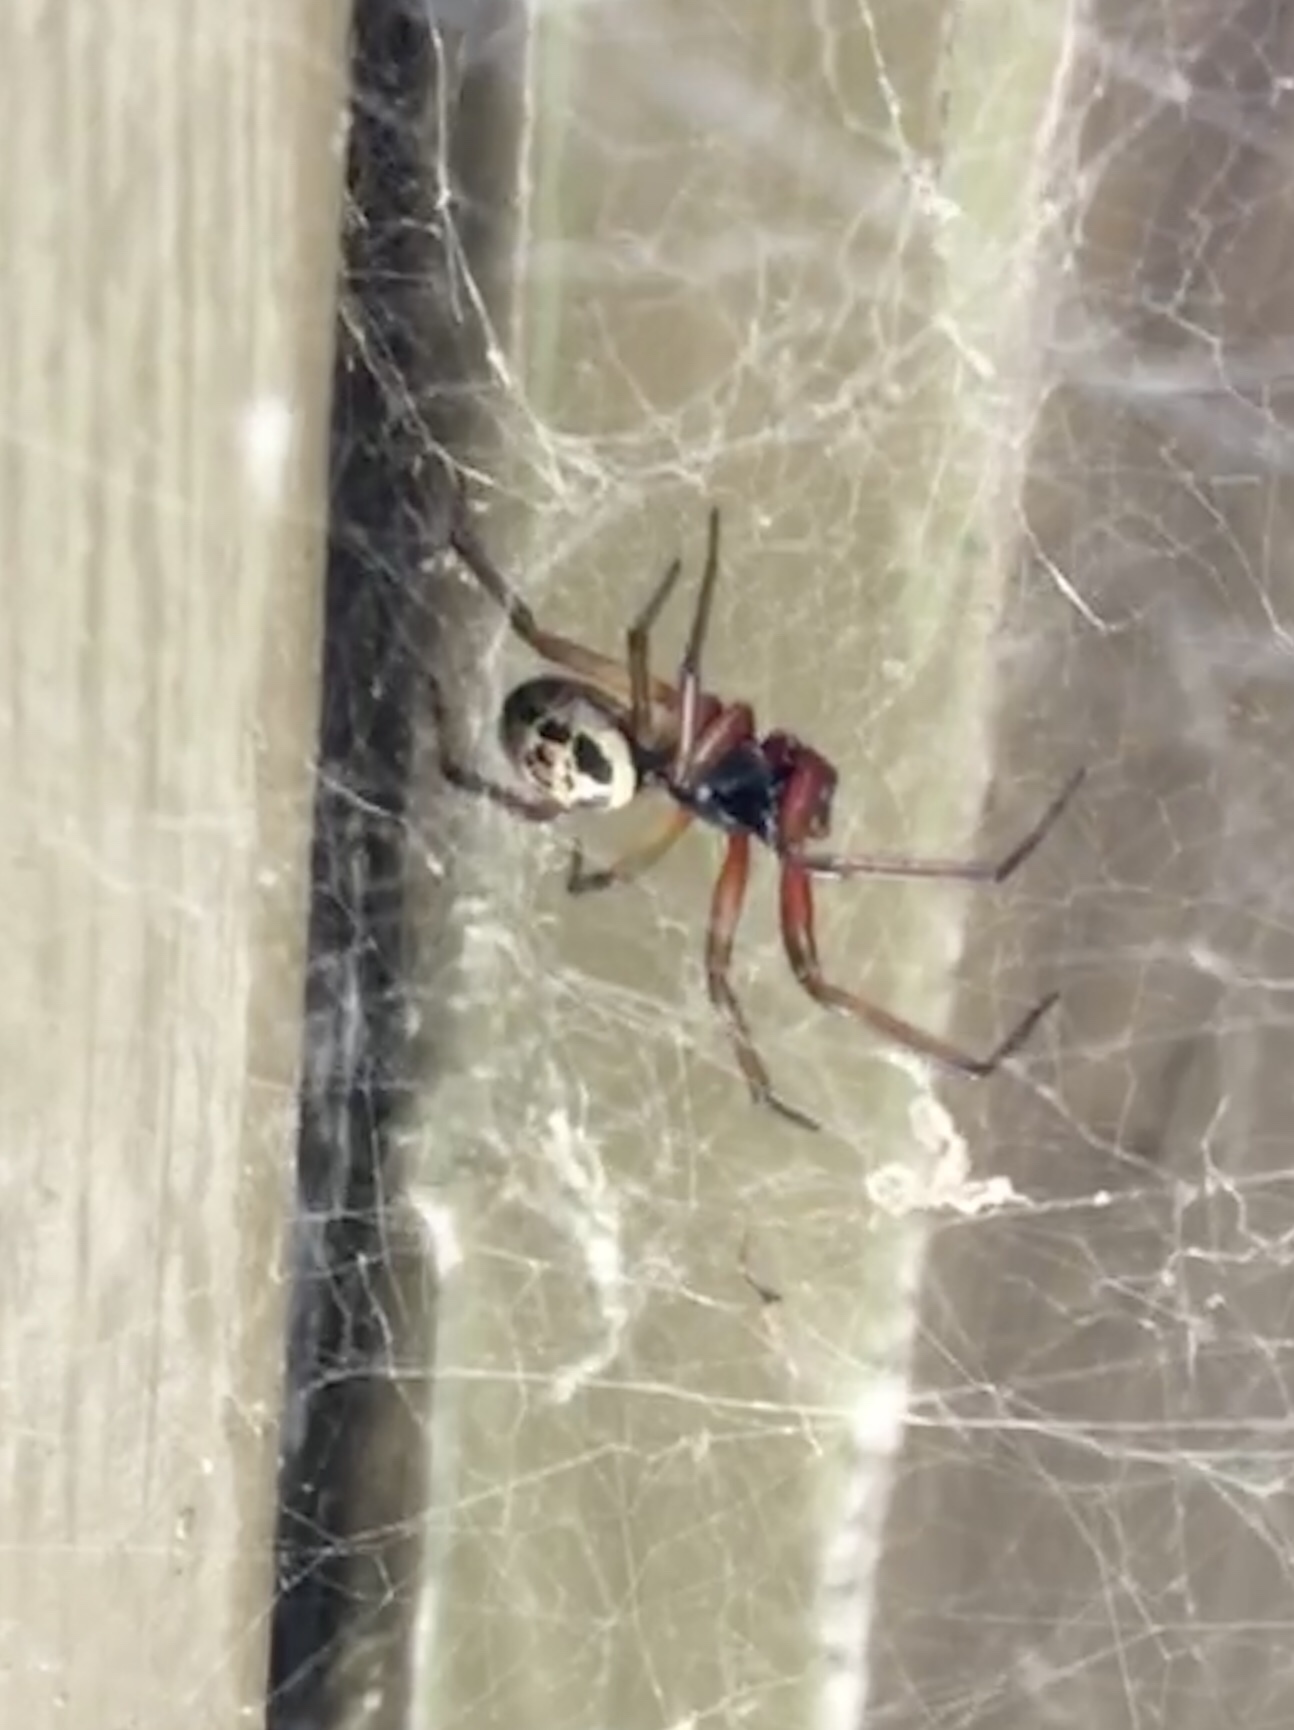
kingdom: Animalia
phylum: Arthropoda
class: Arachnida
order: Araneae
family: Theridiidae
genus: Steatoda
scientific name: Steatoda nobilis
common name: Cobweb weaver
